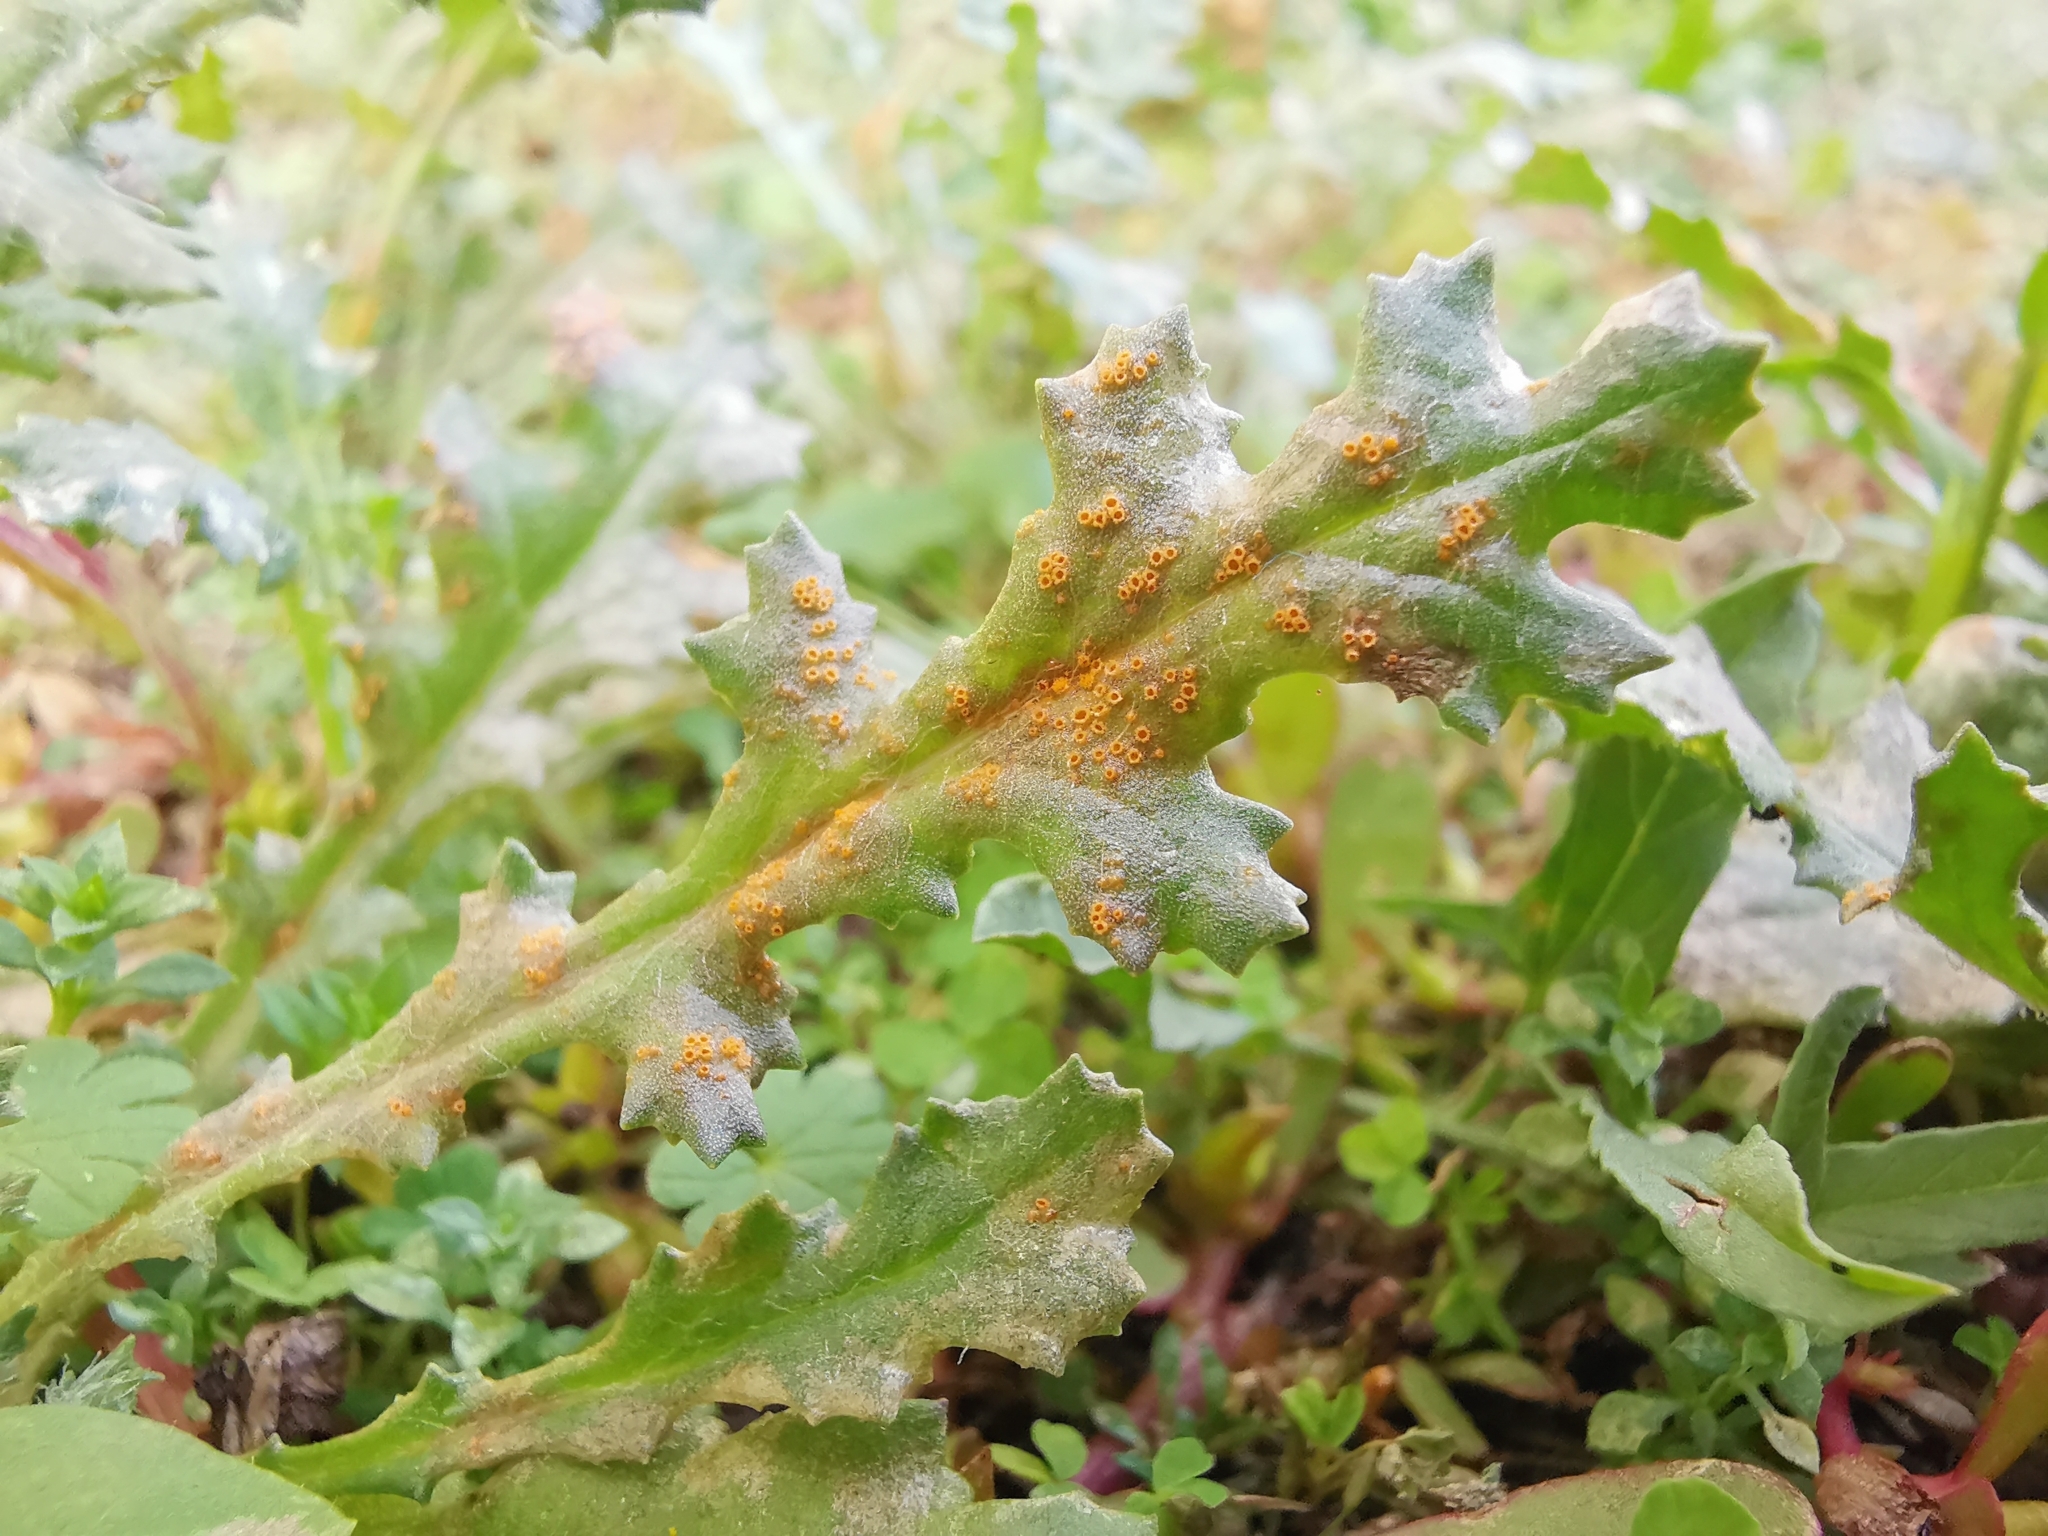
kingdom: Fungi
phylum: Basidiomycota
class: Pucciniomycetes
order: Pucciniales
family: Pucciniaceae
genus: Puccinia
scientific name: Puccinia lagenophorae
